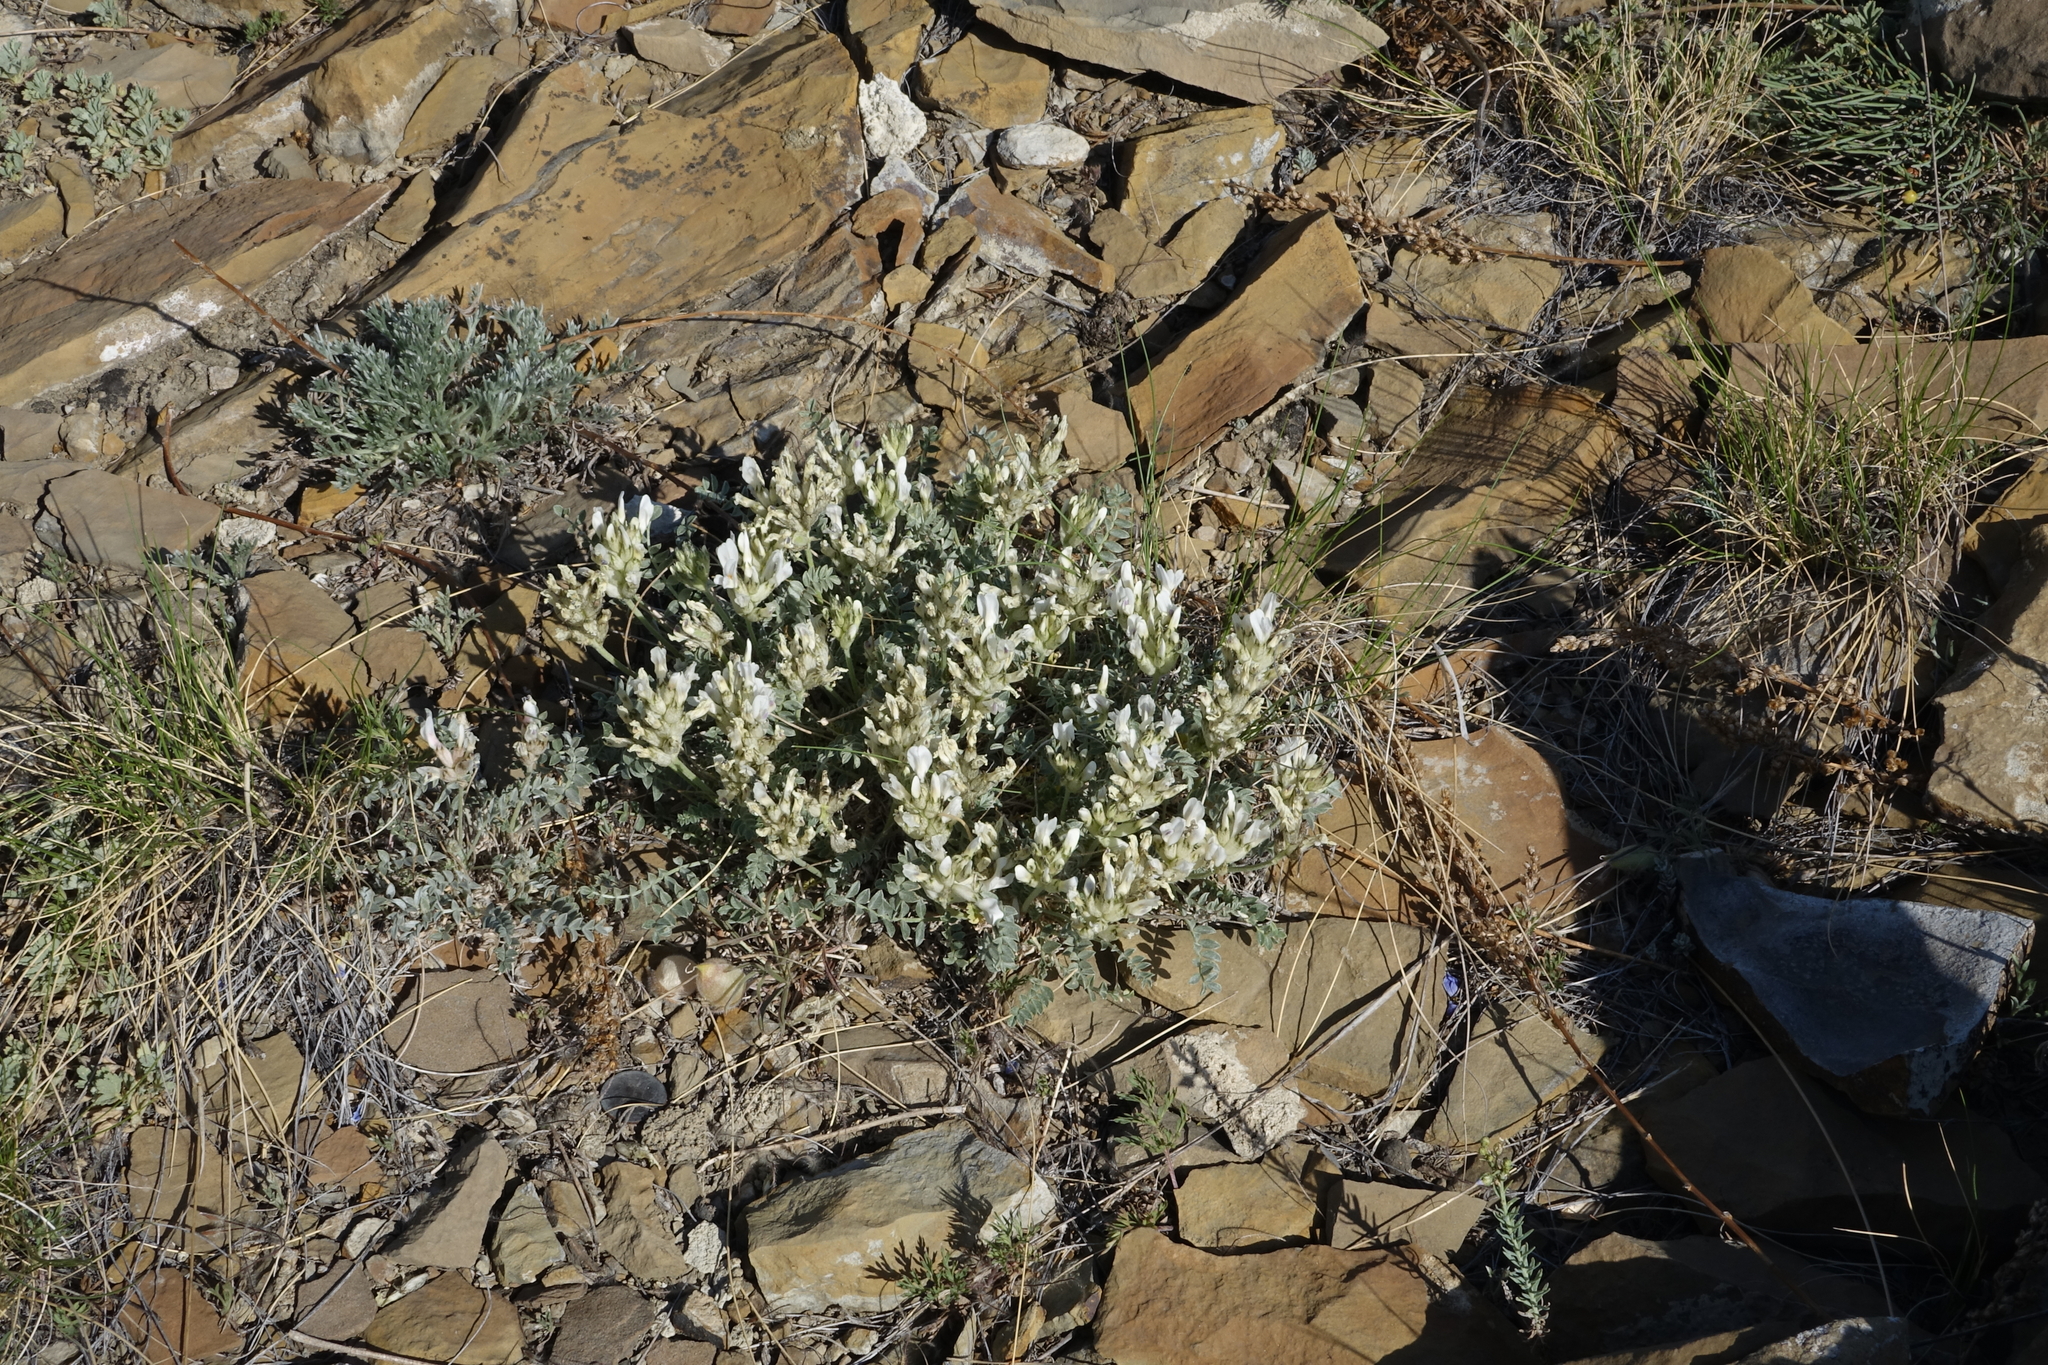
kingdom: Plantae
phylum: Tracheophyta
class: Magnoliopsida
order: Fabales
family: Fabaceae
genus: Astragalus
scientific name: Astragalus dilutus
